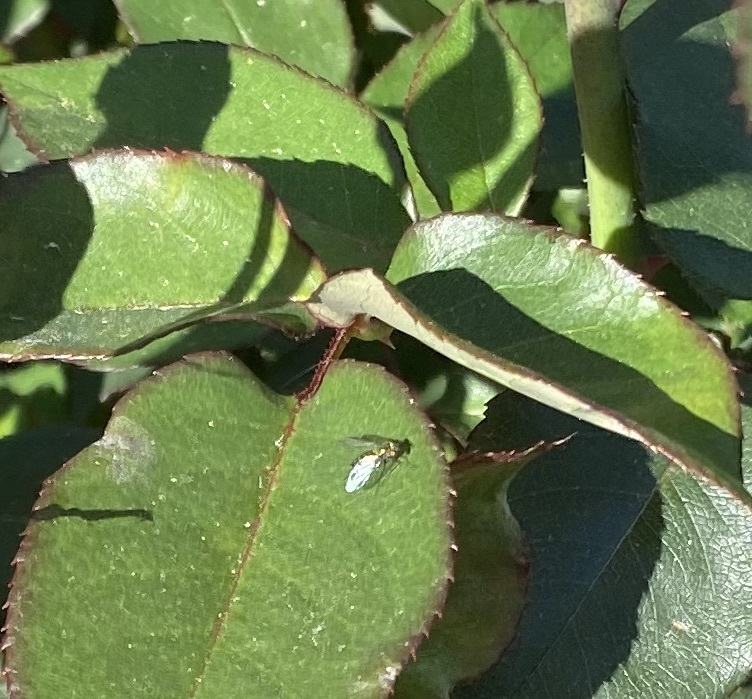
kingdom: Animalia
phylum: Arthropoda
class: Insecta
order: Diptera
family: Dolichopodidae
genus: Condylostylus
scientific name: Condylostylus longicornis
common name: Long-legged fly
